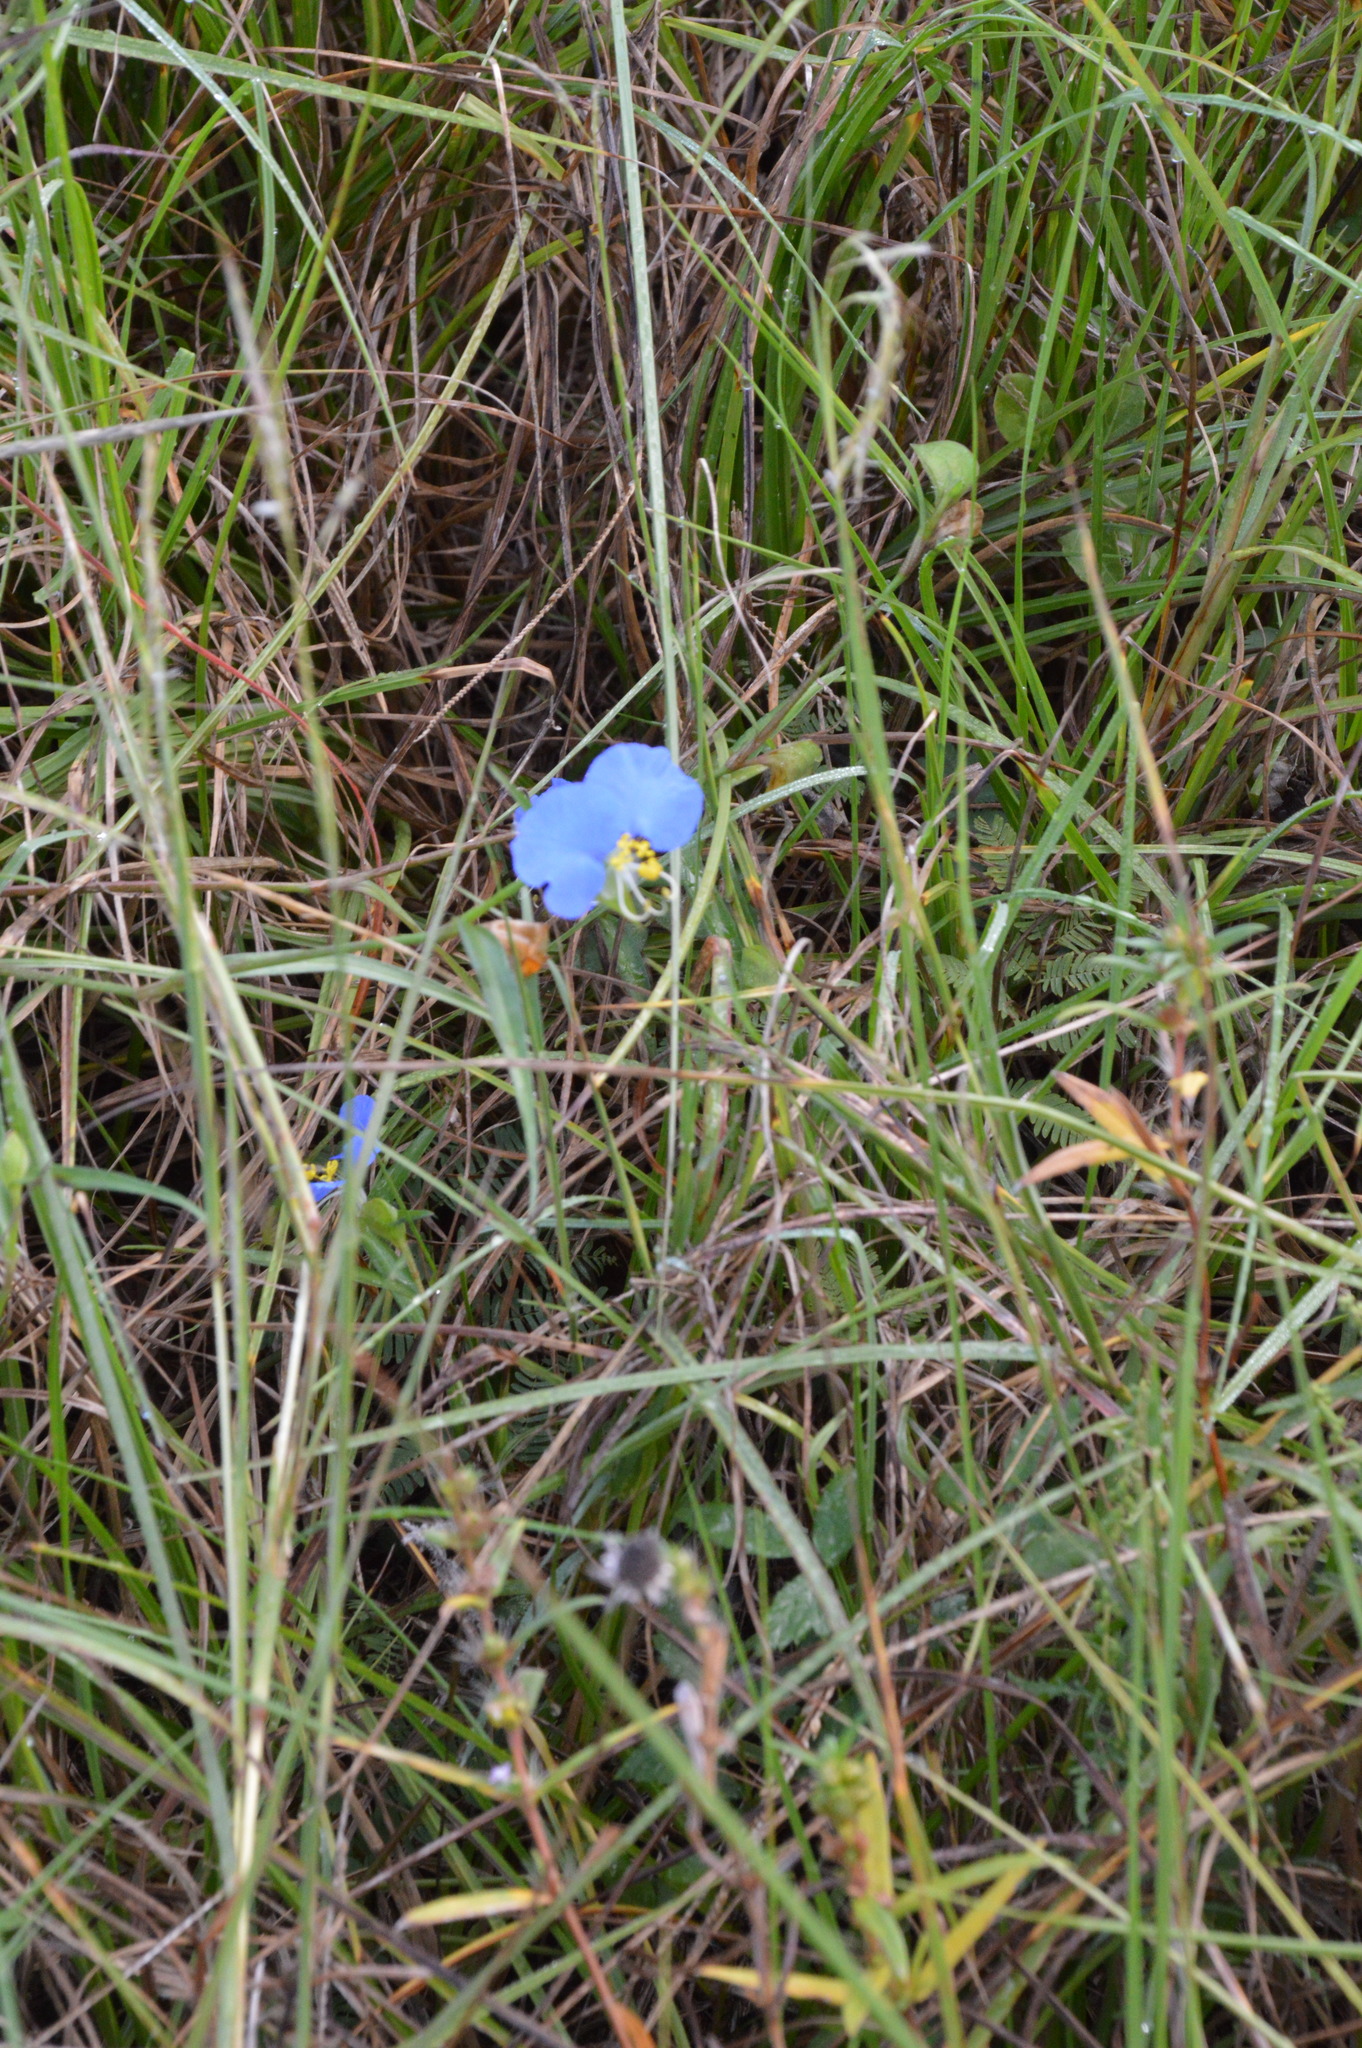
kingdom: Plantae
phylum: Tracheophyta
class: Liliopsida
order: Commelinales
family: Commelinaceae
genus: Commelina
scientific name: Commelina erecta
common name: Blousel blommetjie
